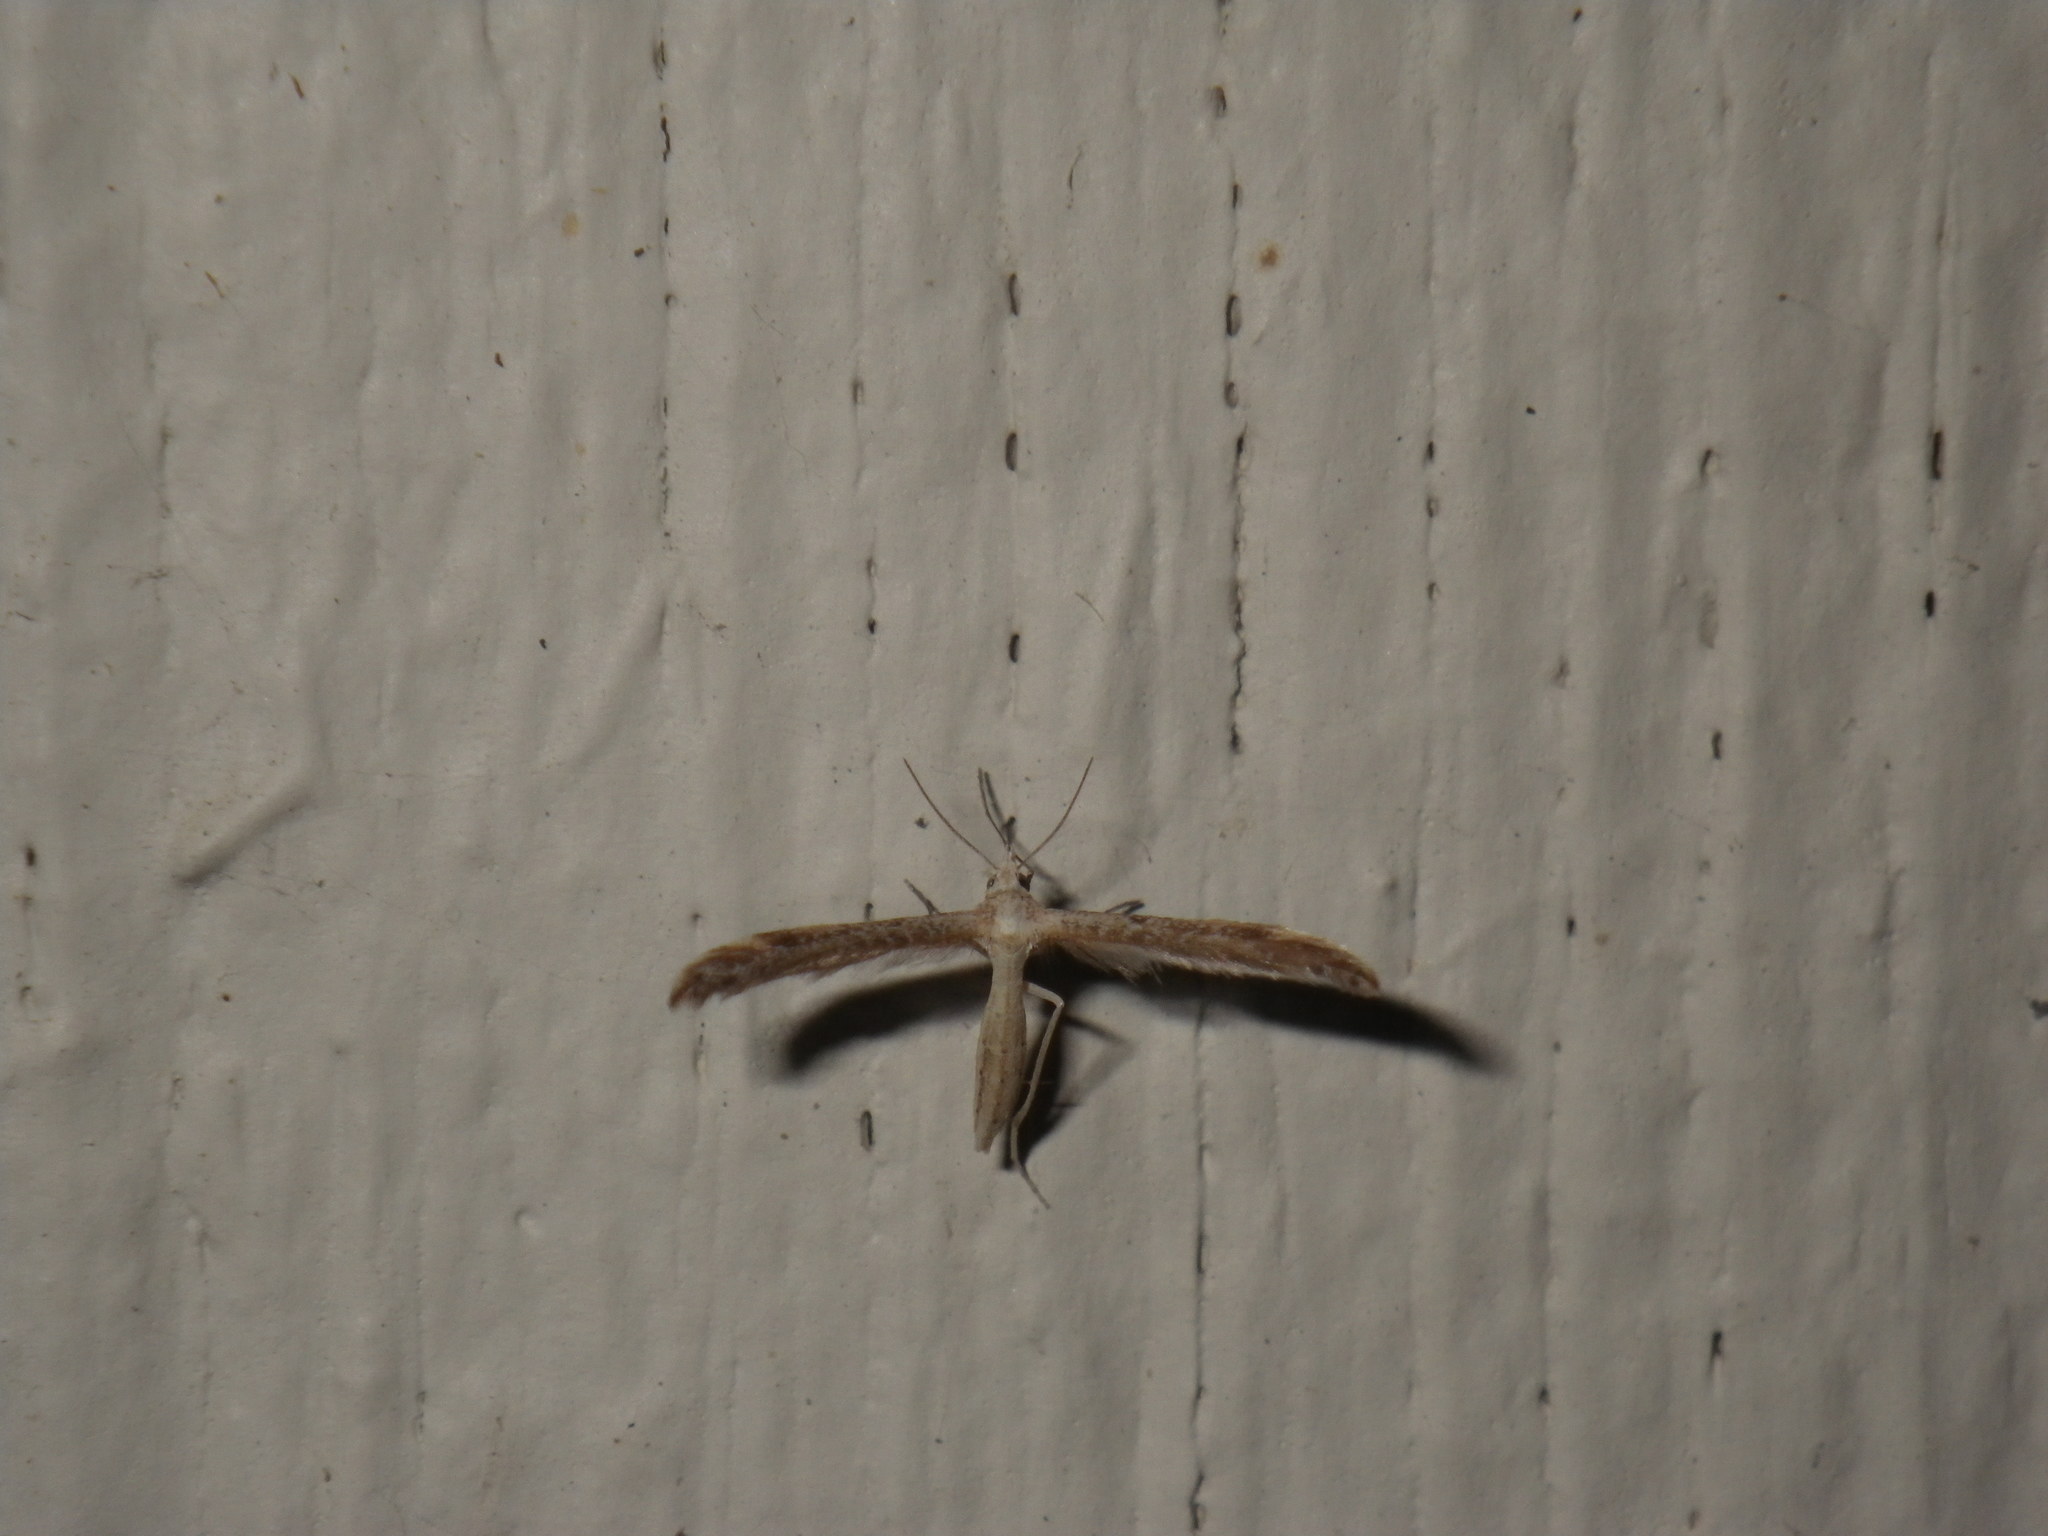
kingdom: Animalia
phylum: Arthropoda
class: Insecta
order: Lepidoptera
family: Pterophoridae
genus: Lioptilodes
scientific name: Lioptilodes albistriolatus
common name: Moth
